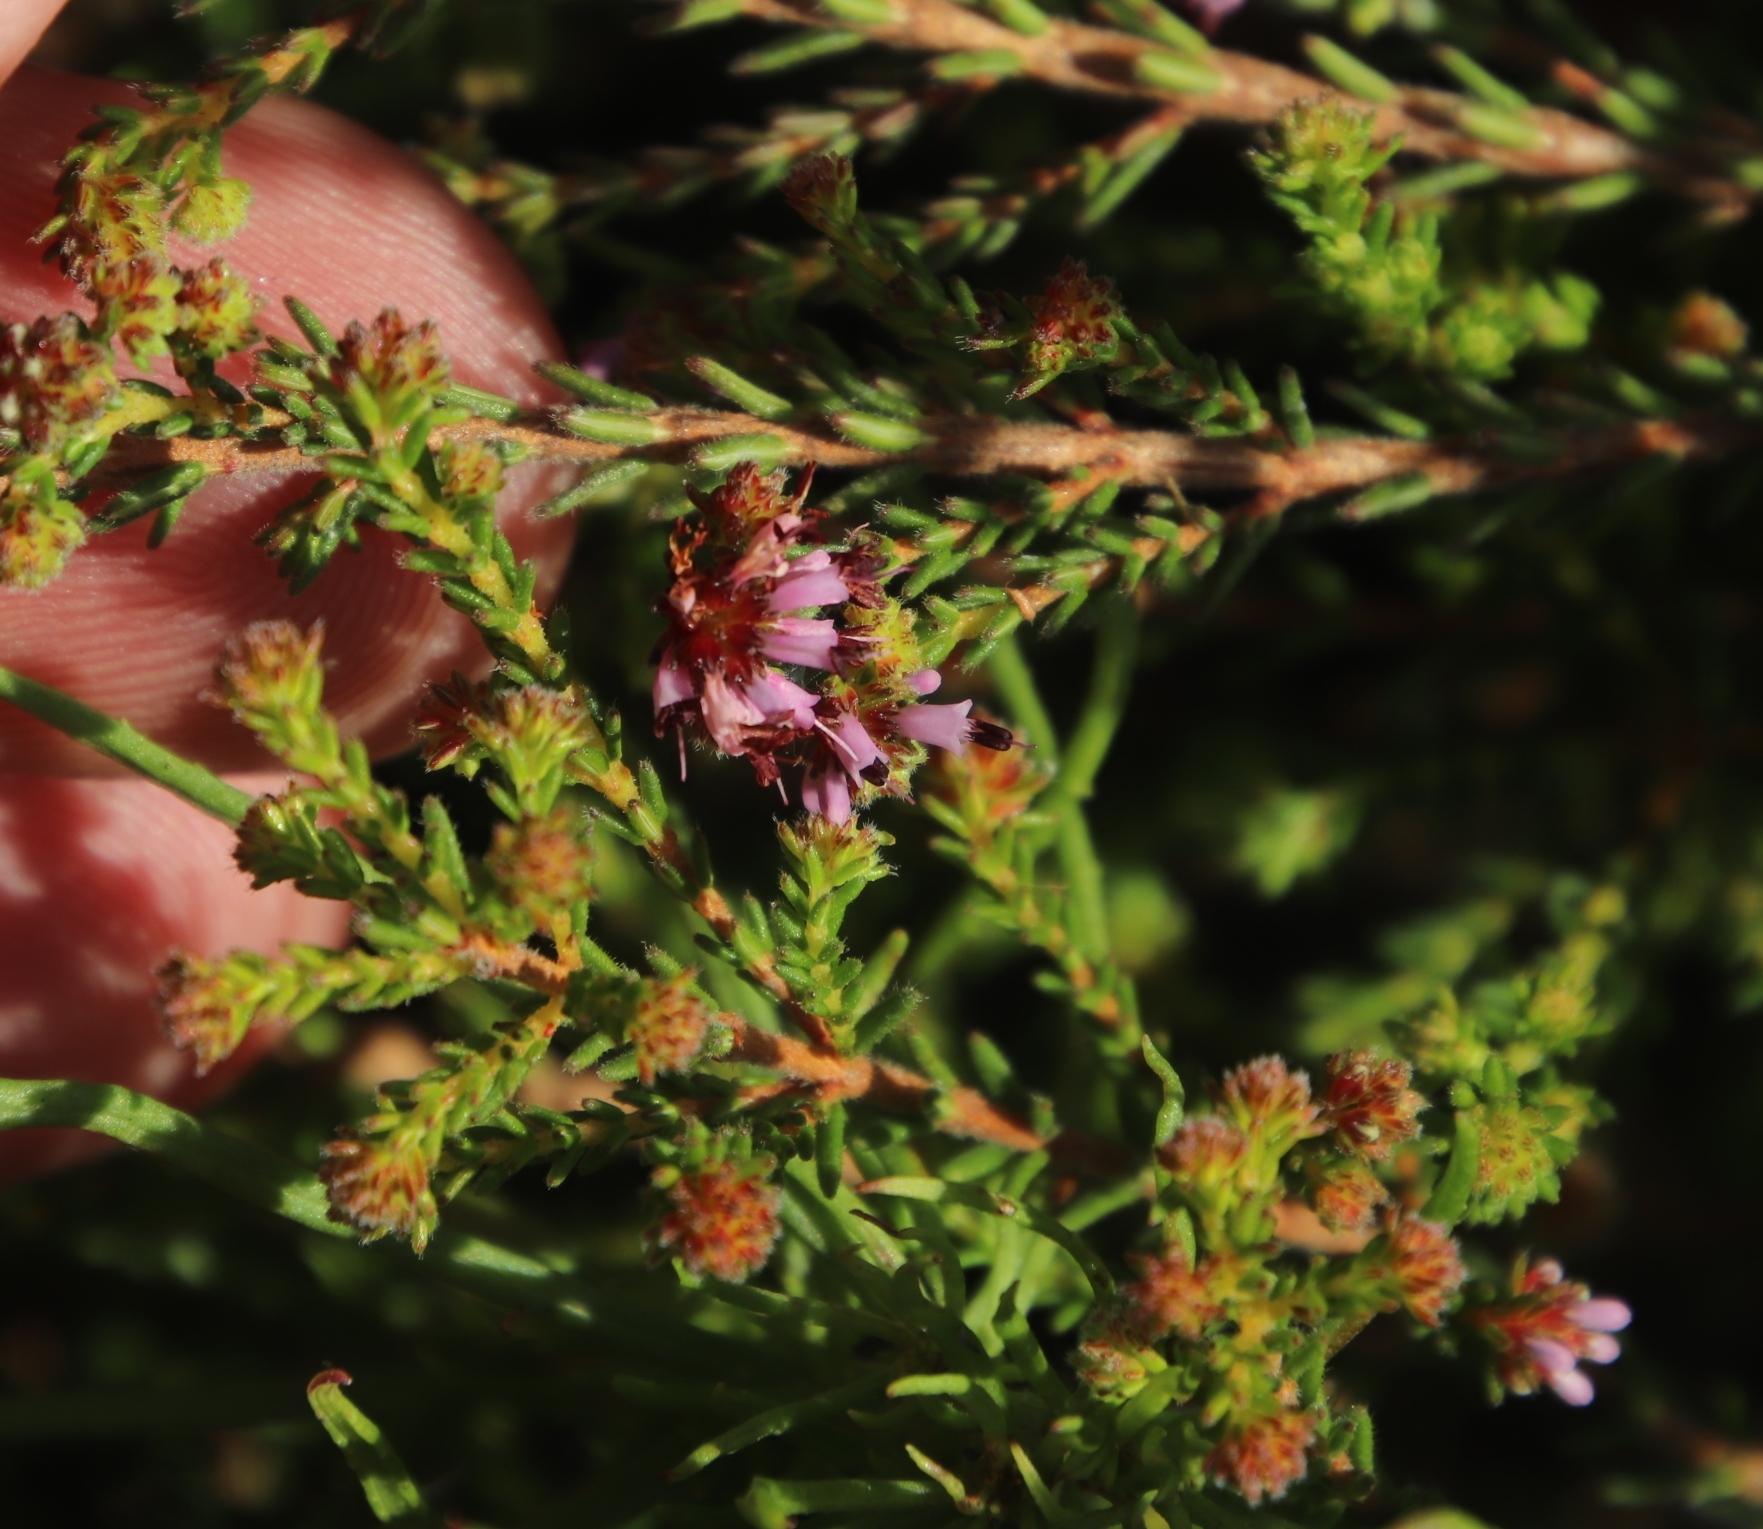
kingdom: Plantae
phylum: Tracheophyta
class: Magnoliopsida
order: Ericales
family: Ericaceae
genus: Erica
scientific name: Erica nudiflora
